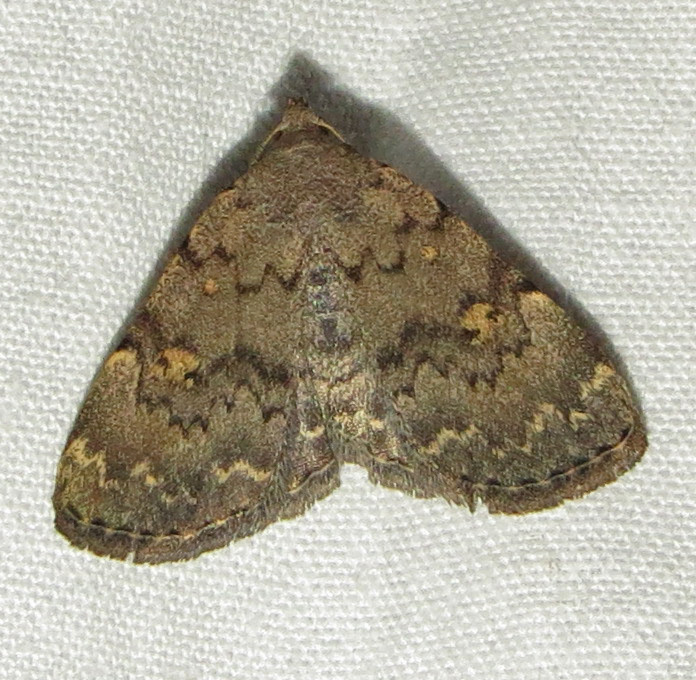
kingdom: Animalia
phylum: Arthropoda
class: Insecta
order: Lepidoptera
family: Erebidae
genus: Idia
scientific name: Idia aemula
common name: Common idia moth
